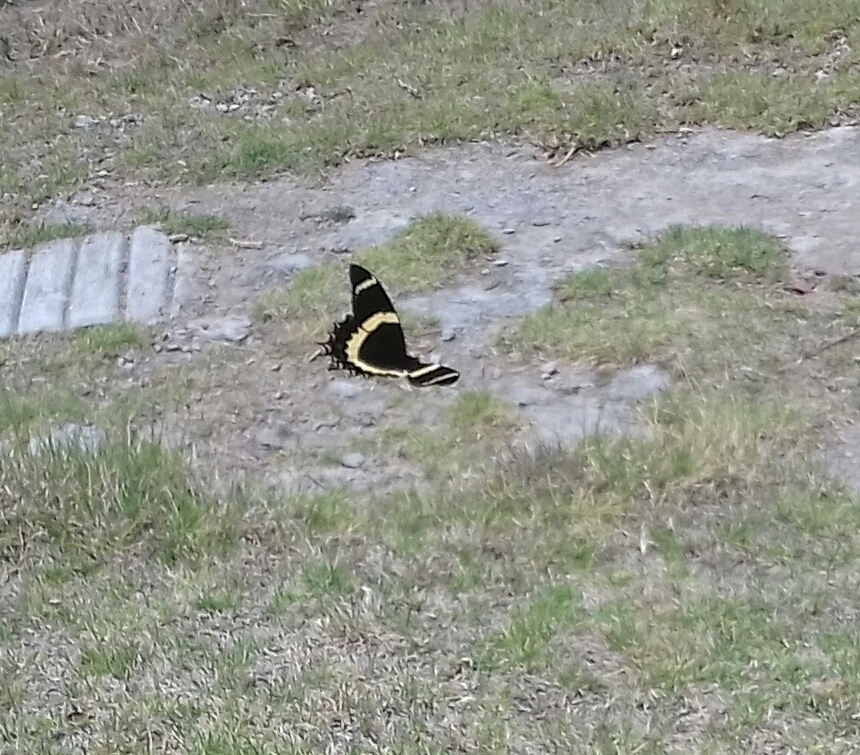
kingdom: Animalia
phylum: Arthropoda
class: Insecta
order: Lepidoptera
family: Papilionidae
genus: Papilio
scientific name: Papilio garamas
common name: Magnificent swallowtail
